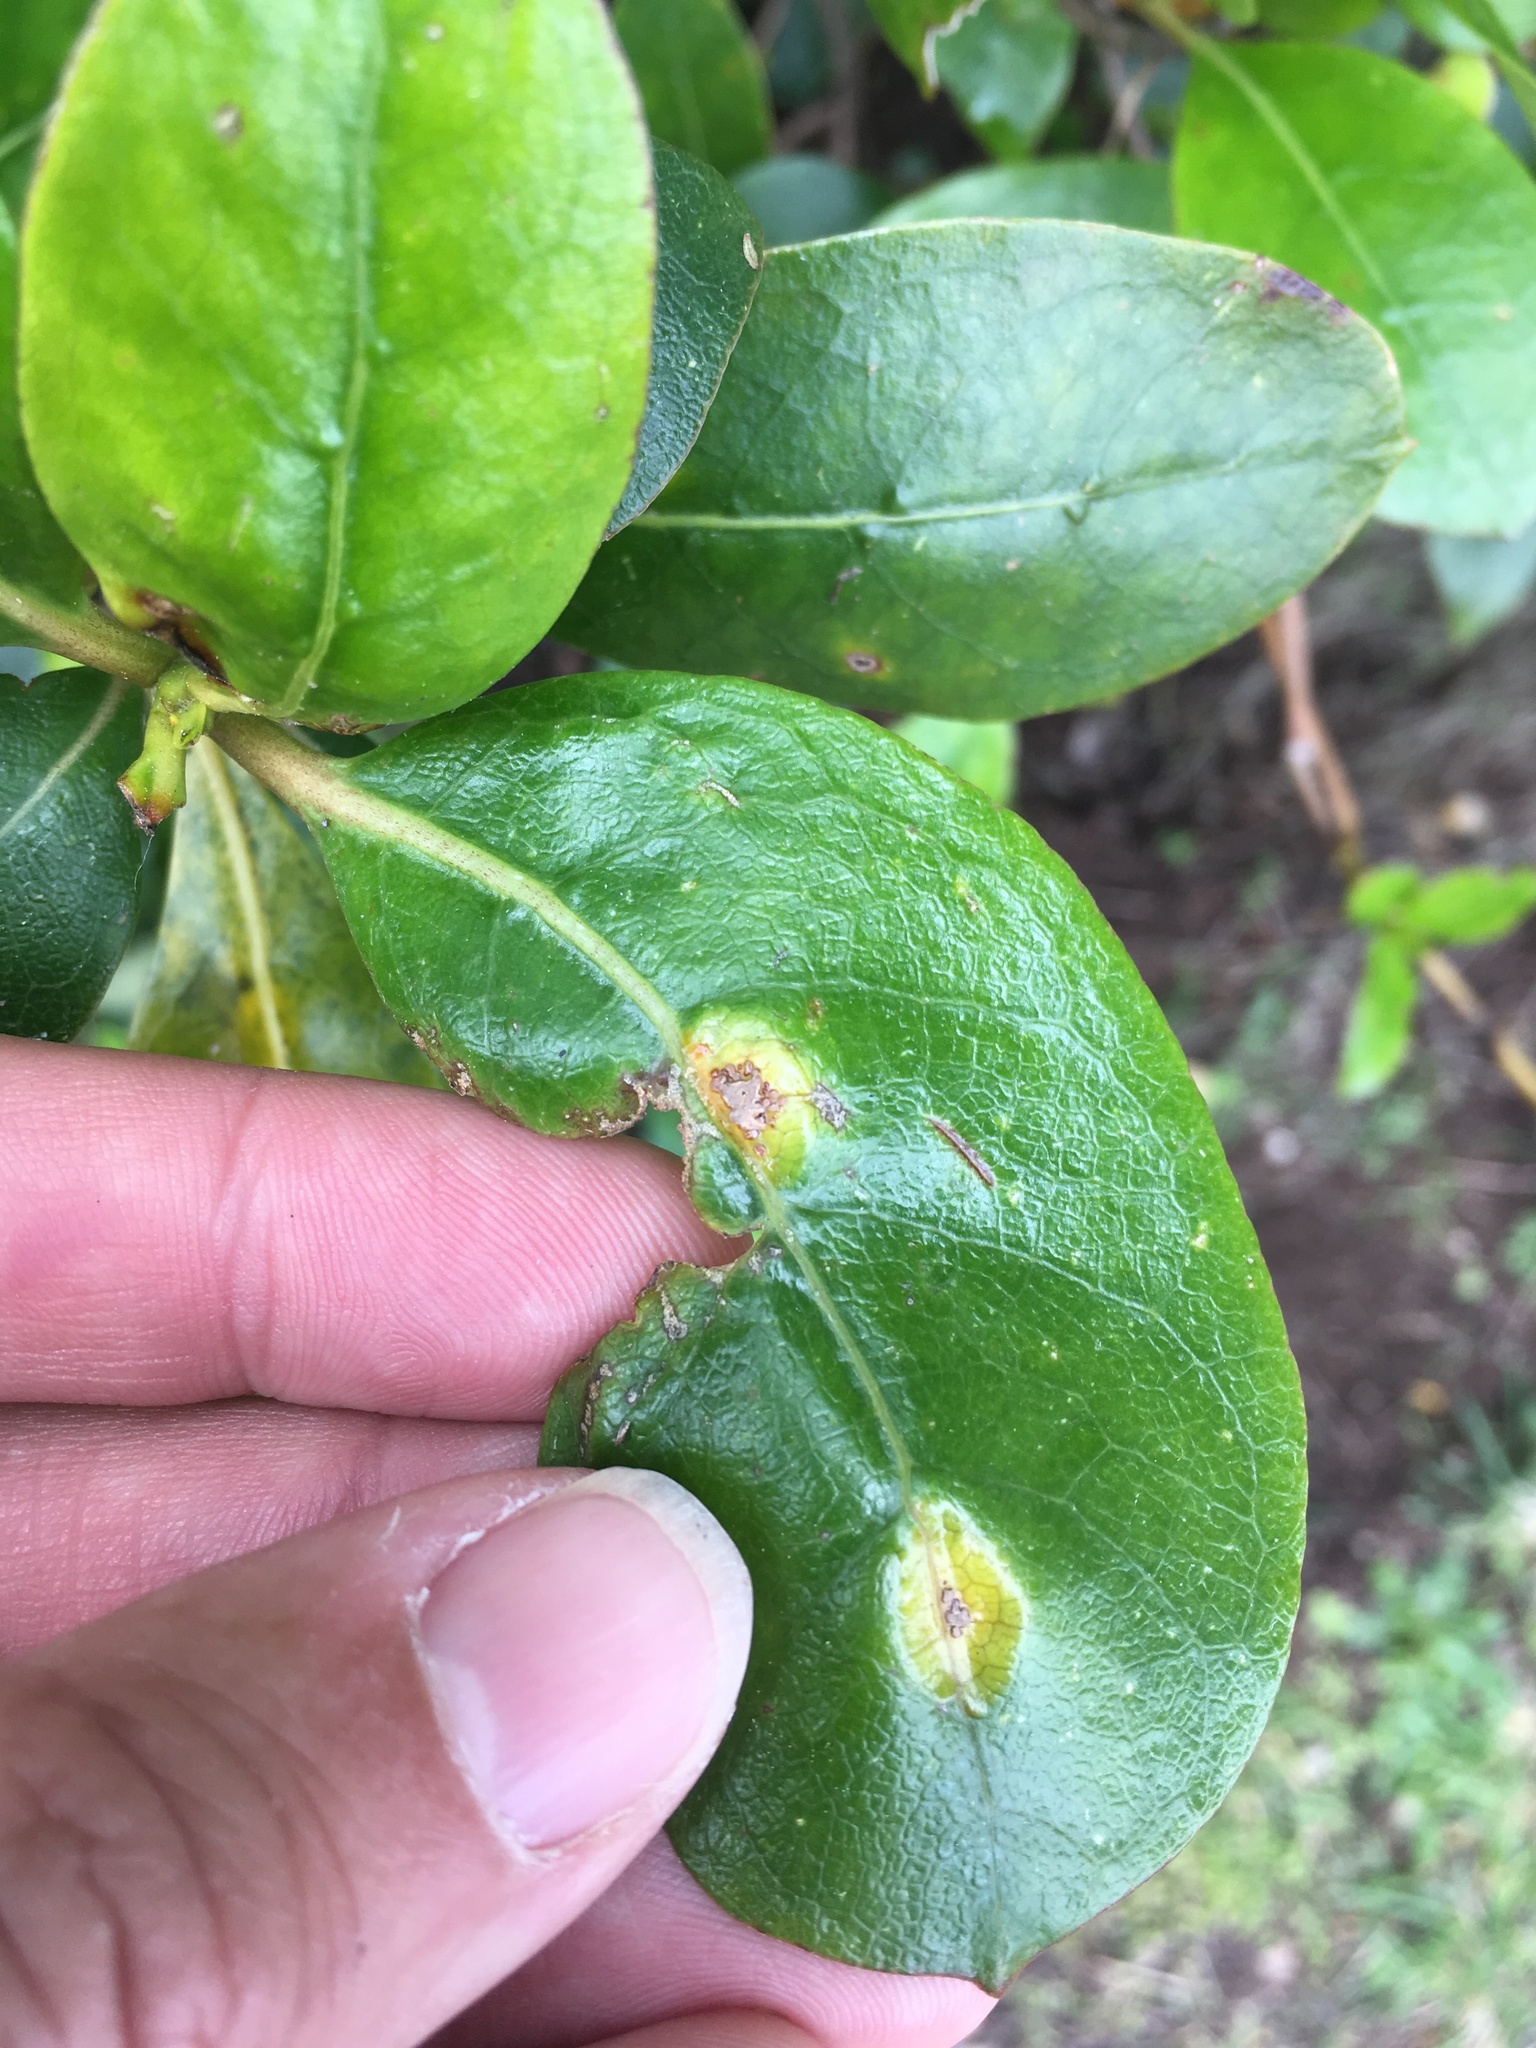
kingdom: Fungi
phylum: Basidiomycota
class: Pucciniomycetes
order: Pucciniales
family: Pucciniaceae
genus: Puccinia
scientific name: Puccinia coprosmae
